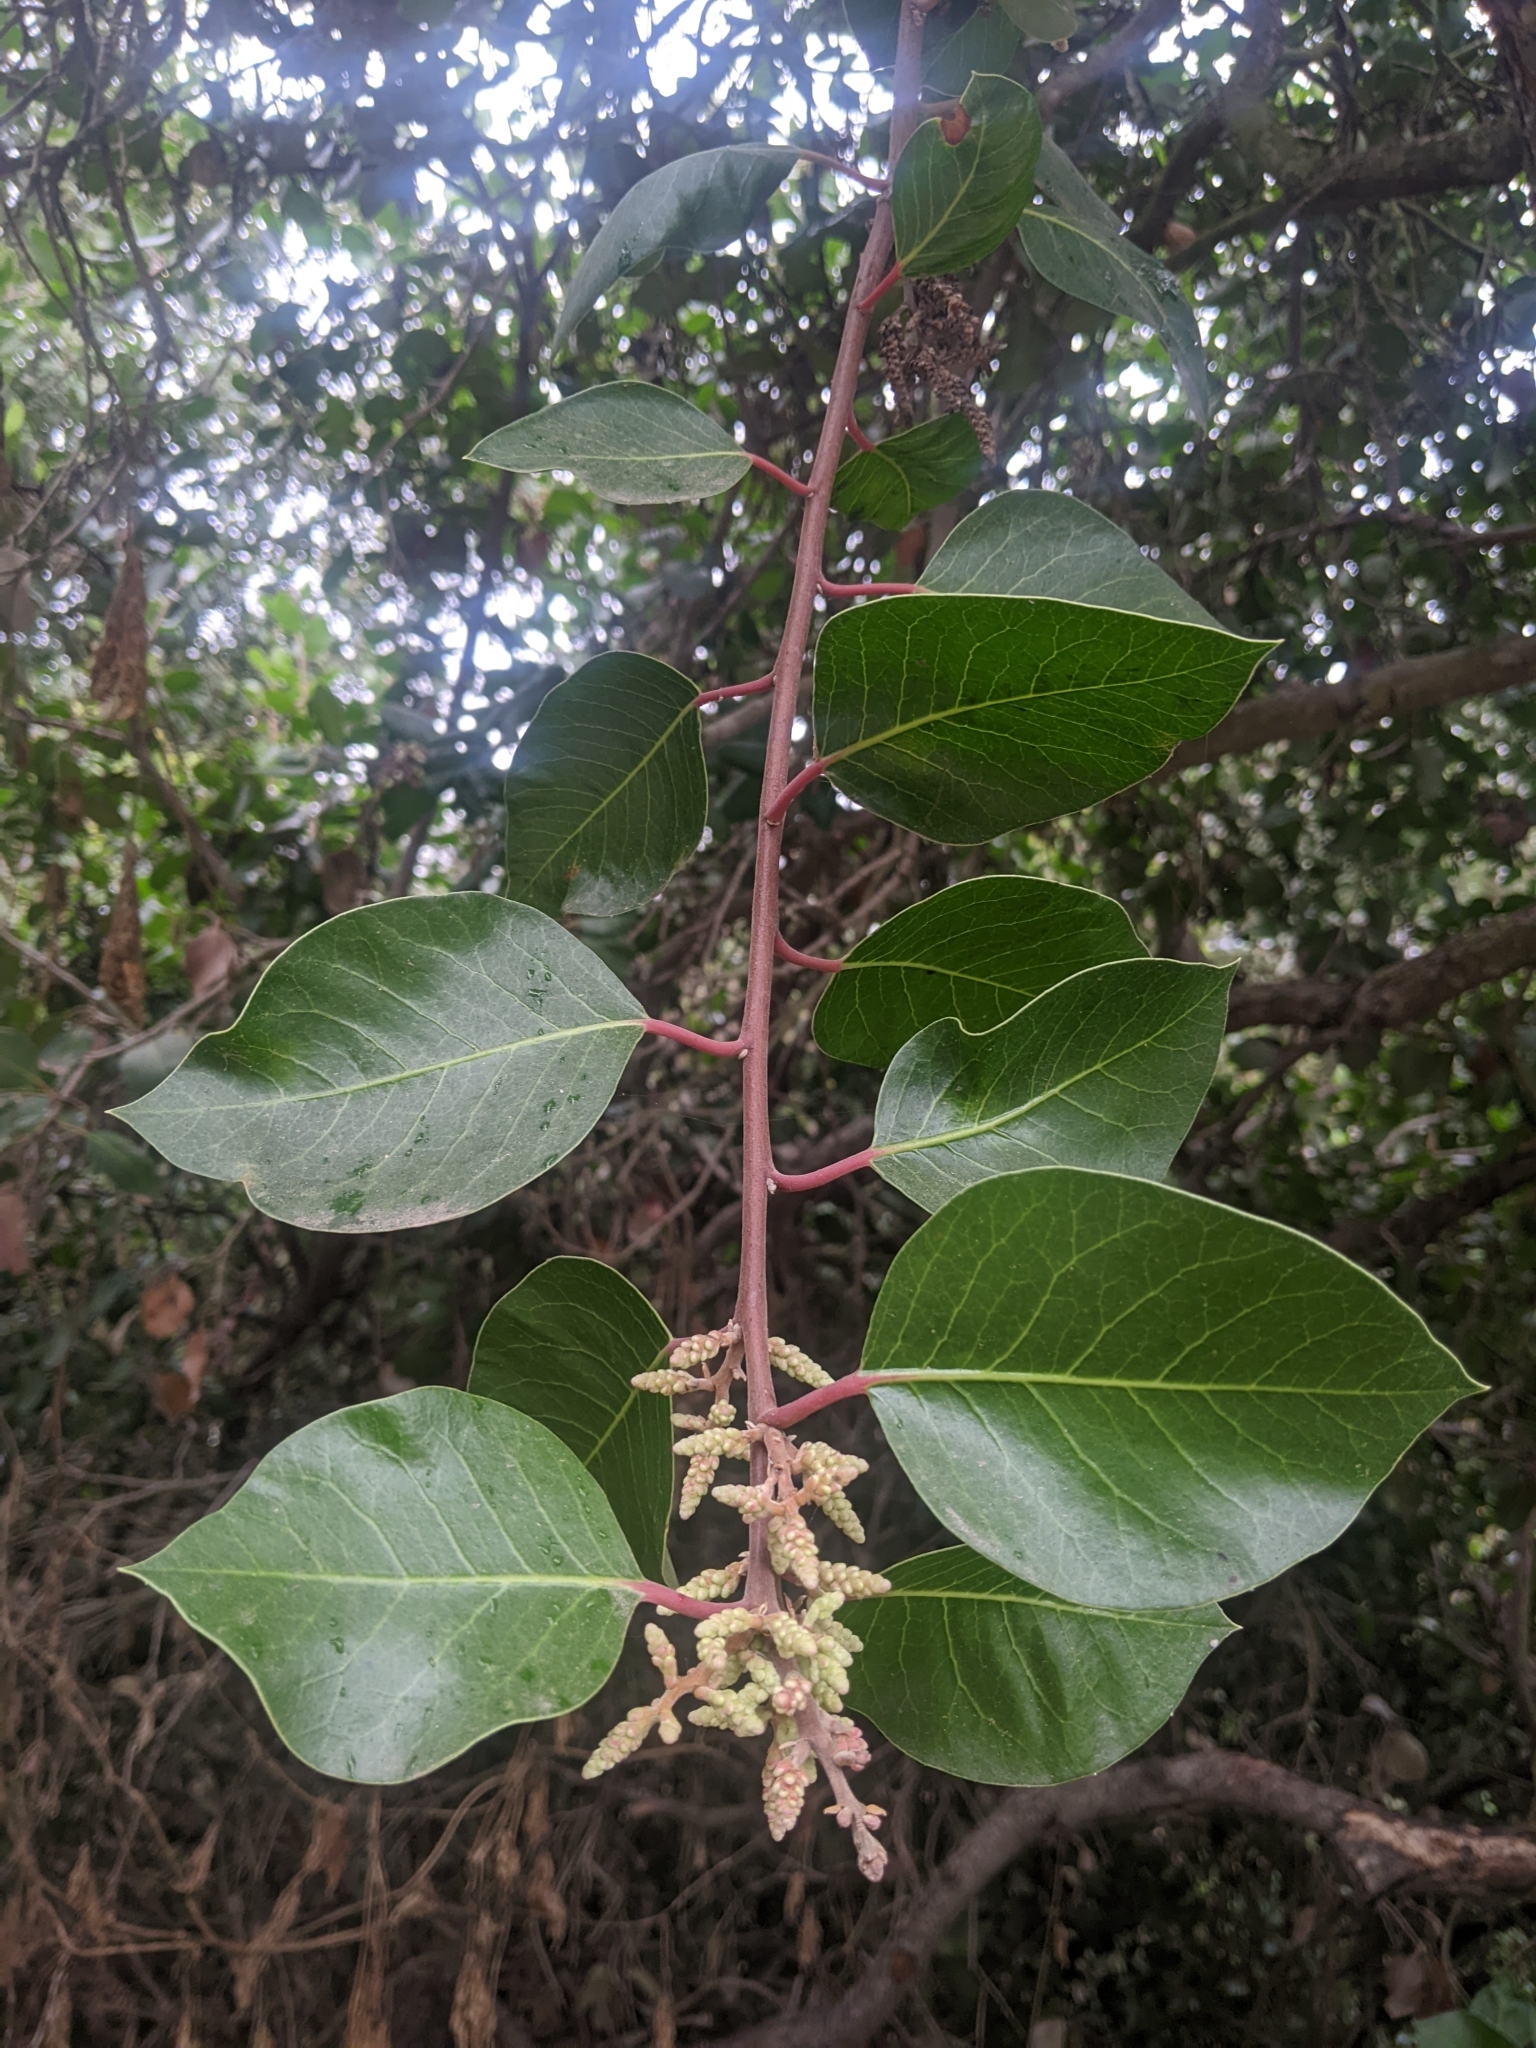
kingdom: Plantae
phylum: Tracheophyta
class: Magnoliopsida
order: Sapindales
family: Anacardiaceae
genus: Rhus
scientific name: Rhus
